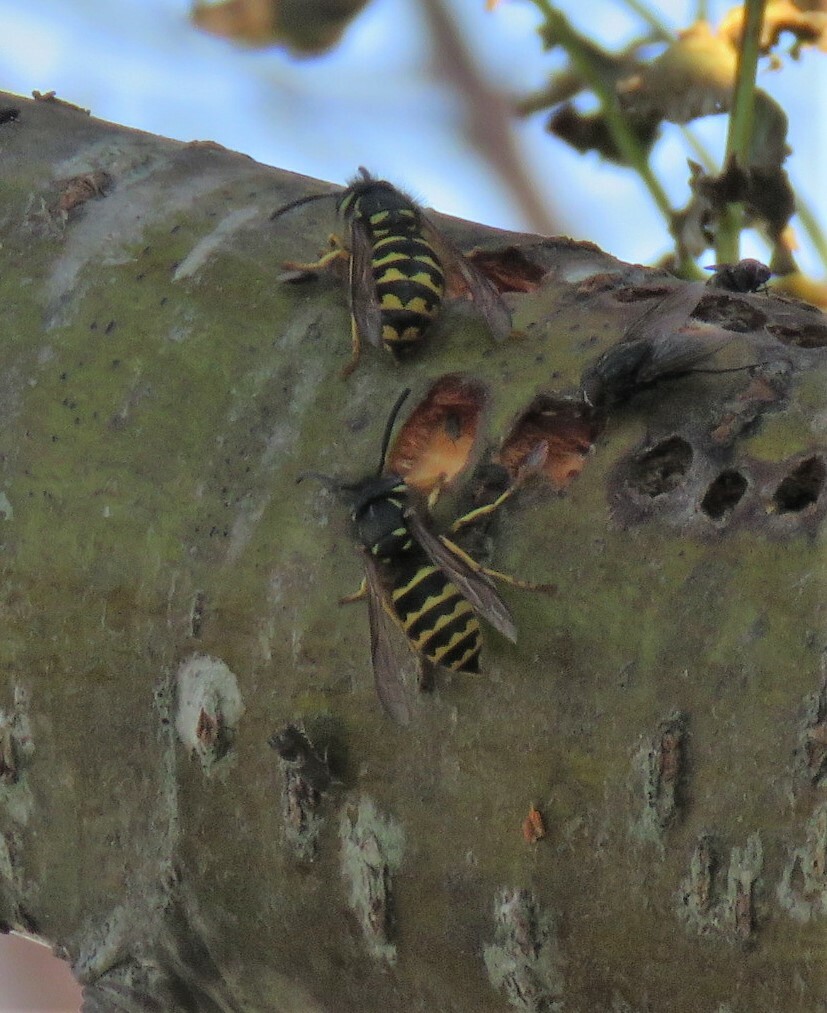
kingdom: Animalia
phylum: Arthropoda
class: Insecta
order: Hymenoptera
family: Vespidae
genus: Vespula
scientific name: Vespula alascensis
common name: Alaska yellowjacket
